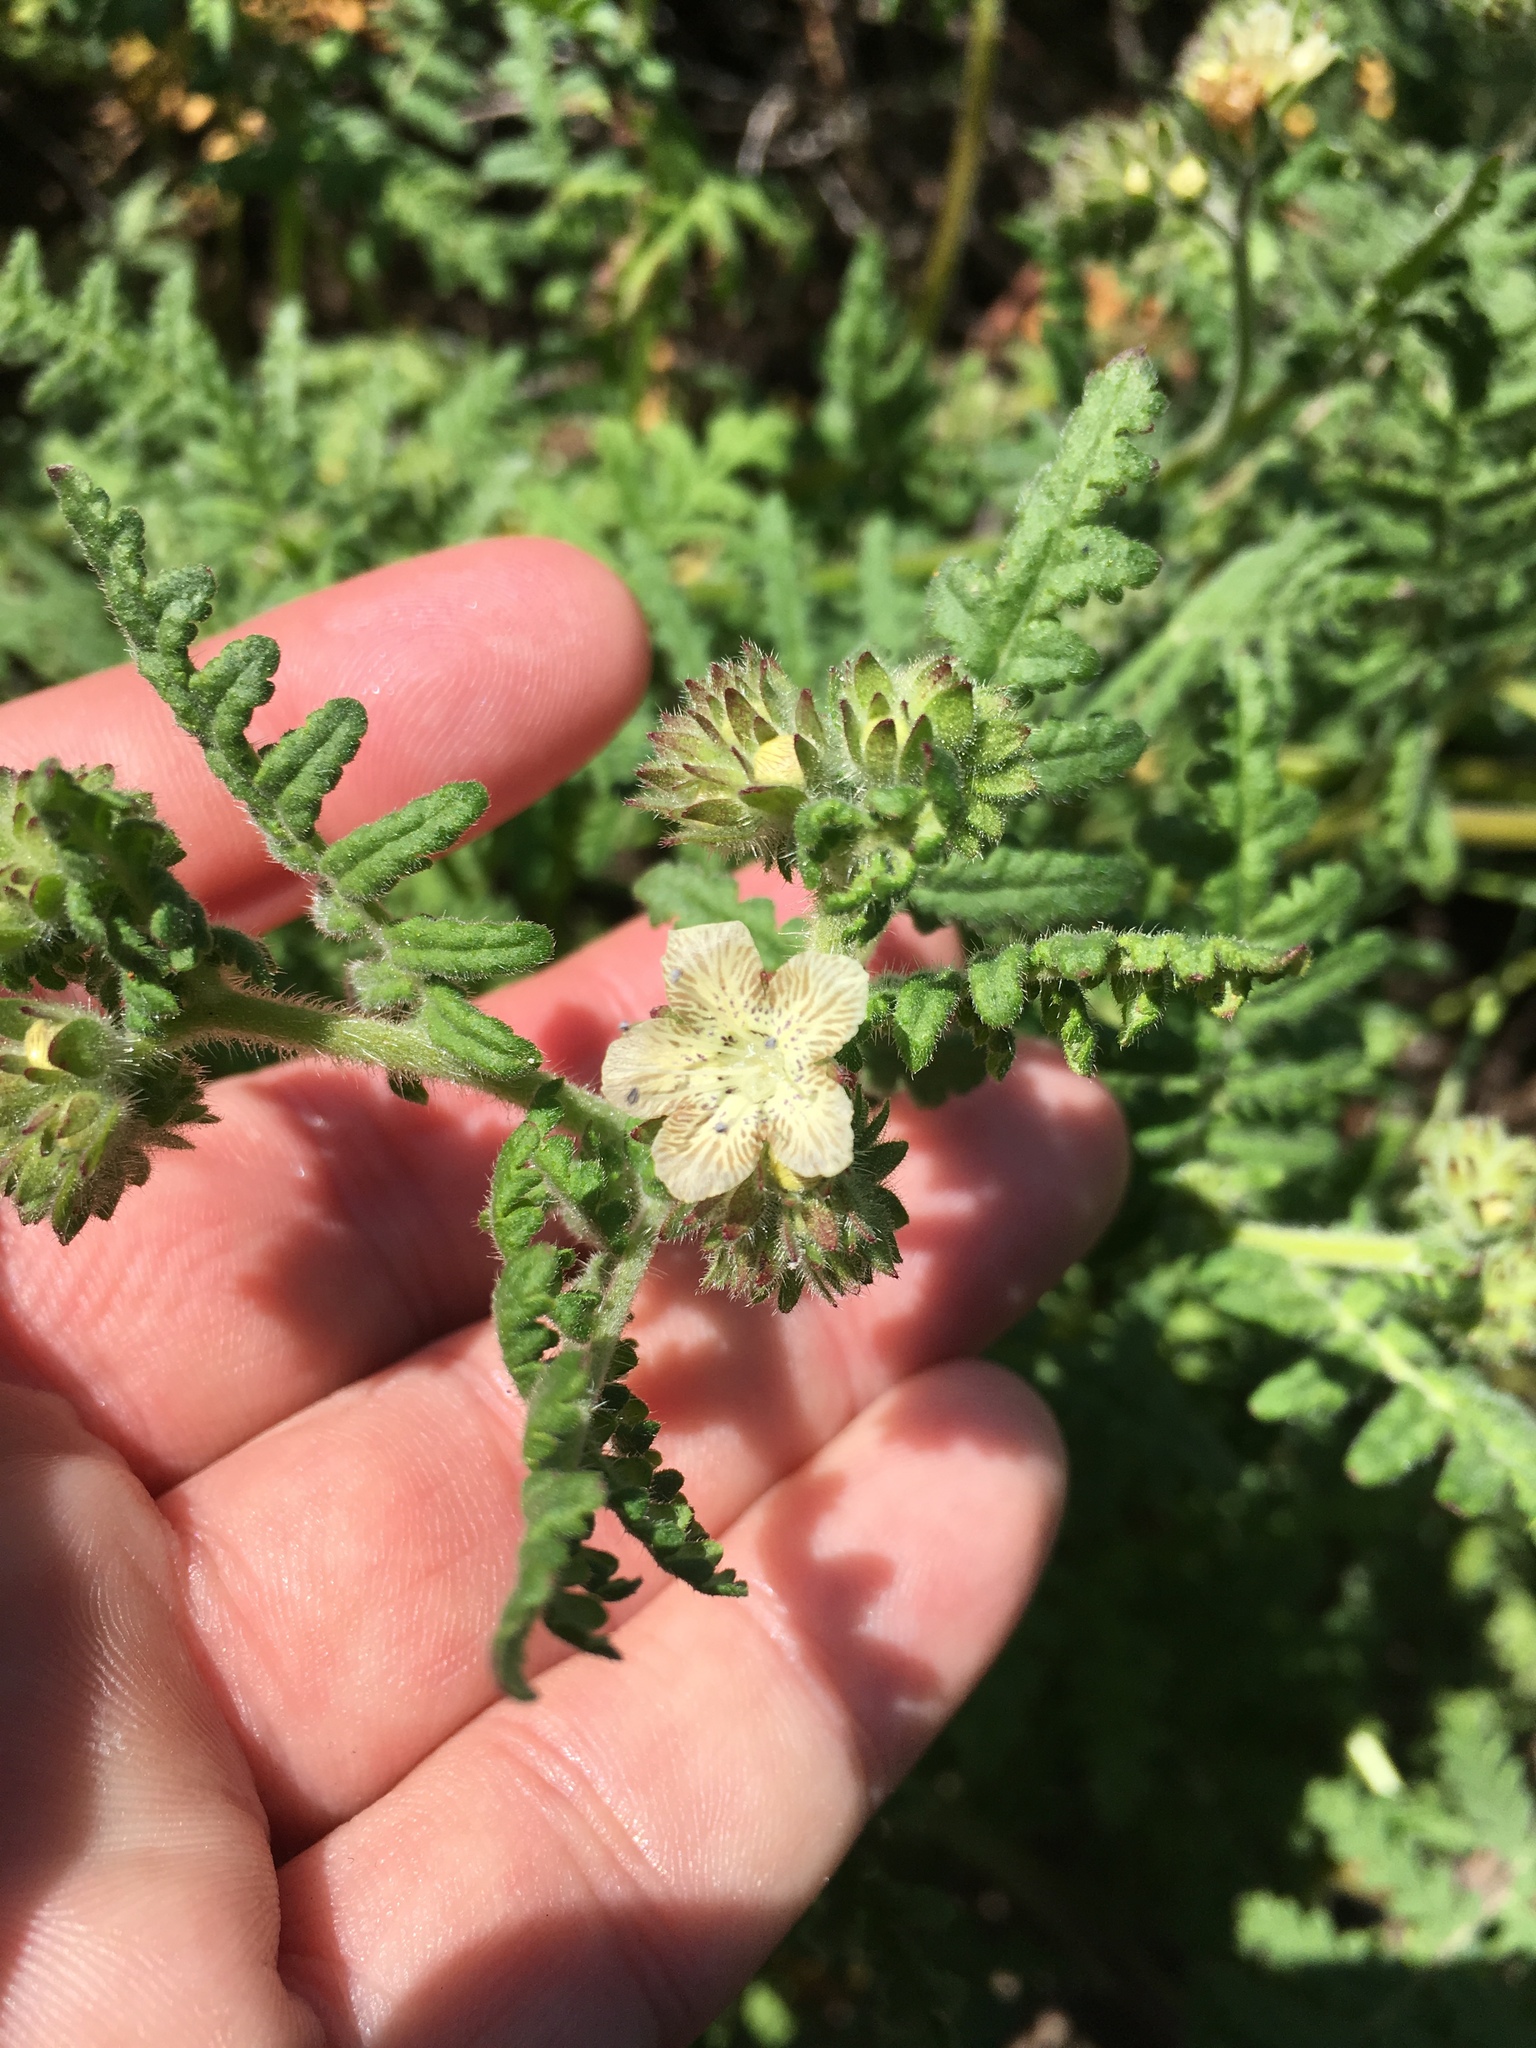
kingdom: Plantae
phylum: Tracheophyta
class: Magnoliopsida
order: Boraginales
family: Hydrophyllaceae
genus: Phacelia
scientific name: Phacelia distans
